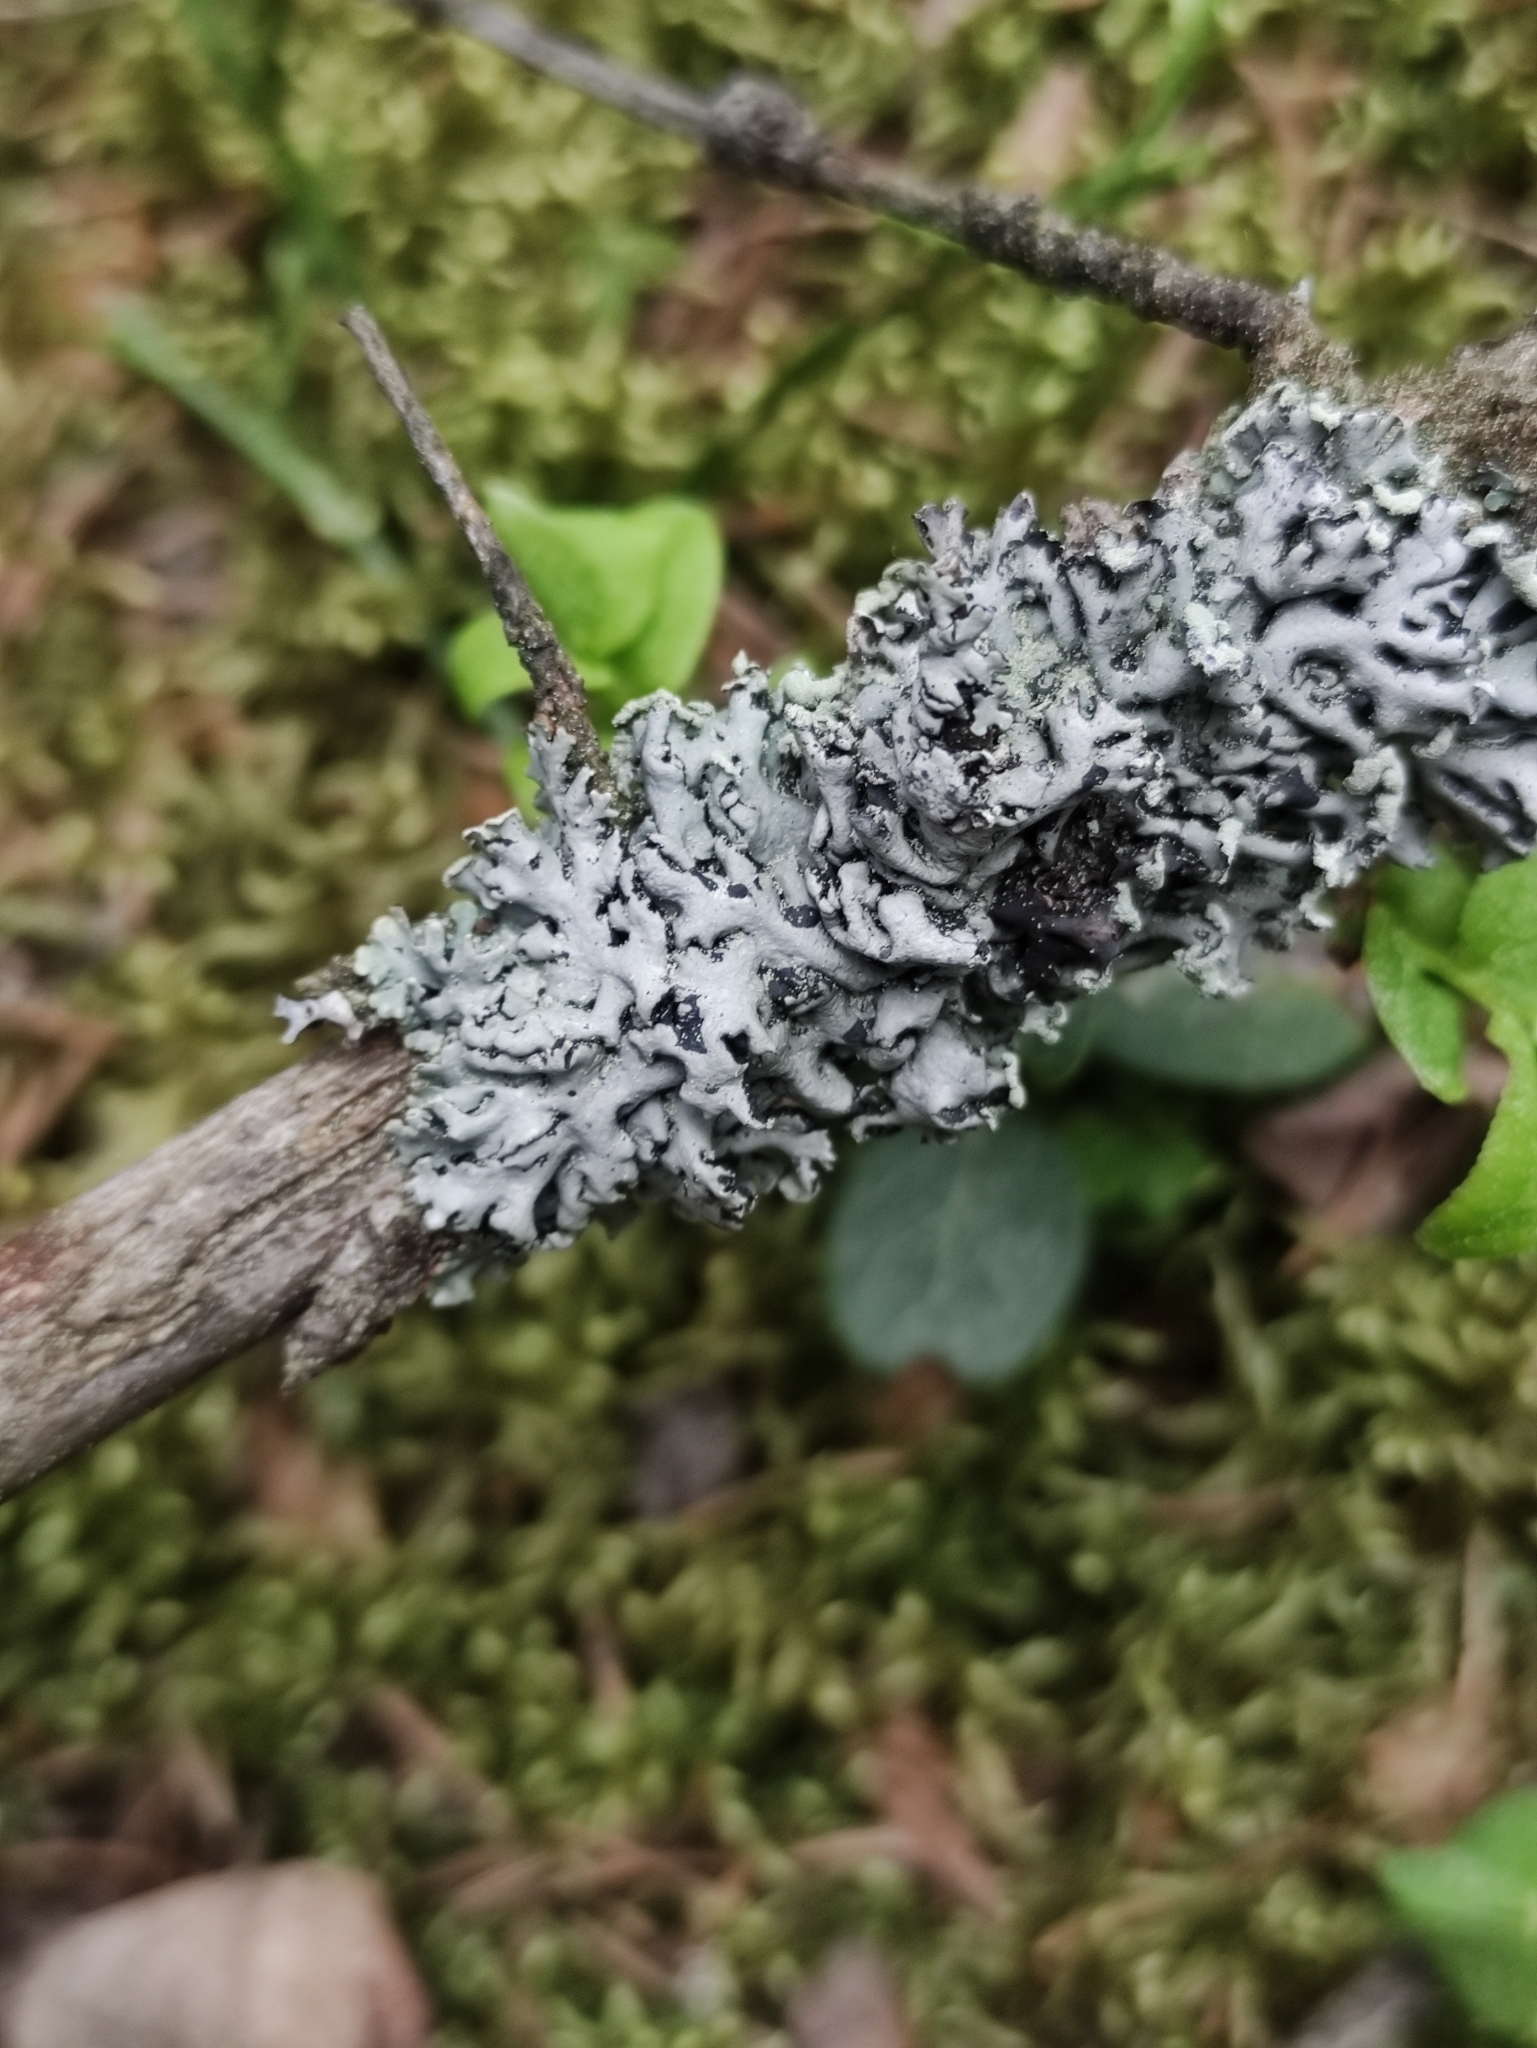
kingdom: Fungi
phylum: Ascomycota
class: Lecanoromycetes
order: Lecanorales
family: Parmeliaceae
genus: Hypogymnia
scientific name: Hypogymnia physodes
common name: Dark crottle
